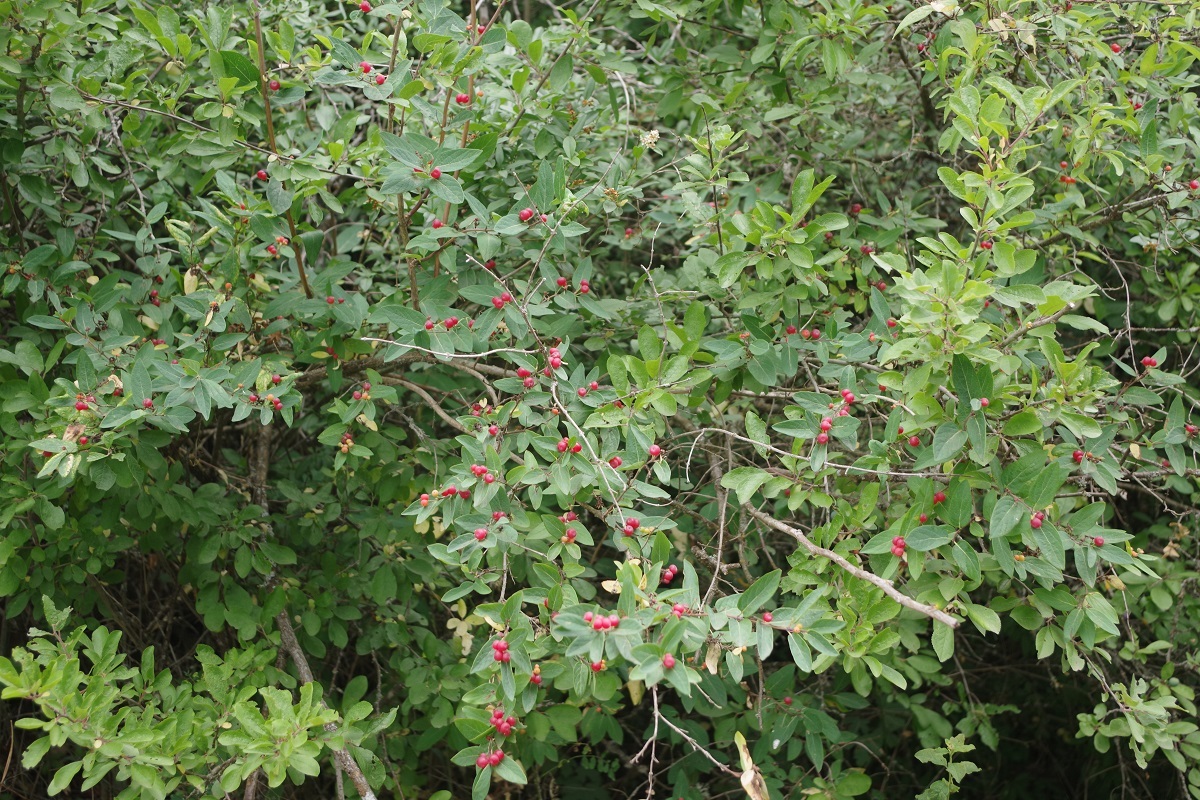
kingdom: Plantae
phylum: Tracheophyta
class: Magnoliopsida
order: Dipsacales
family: Caprifoliaceae
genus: Lonicera
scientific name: Lonicera tatarica
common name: Tatarian honeysuckle
